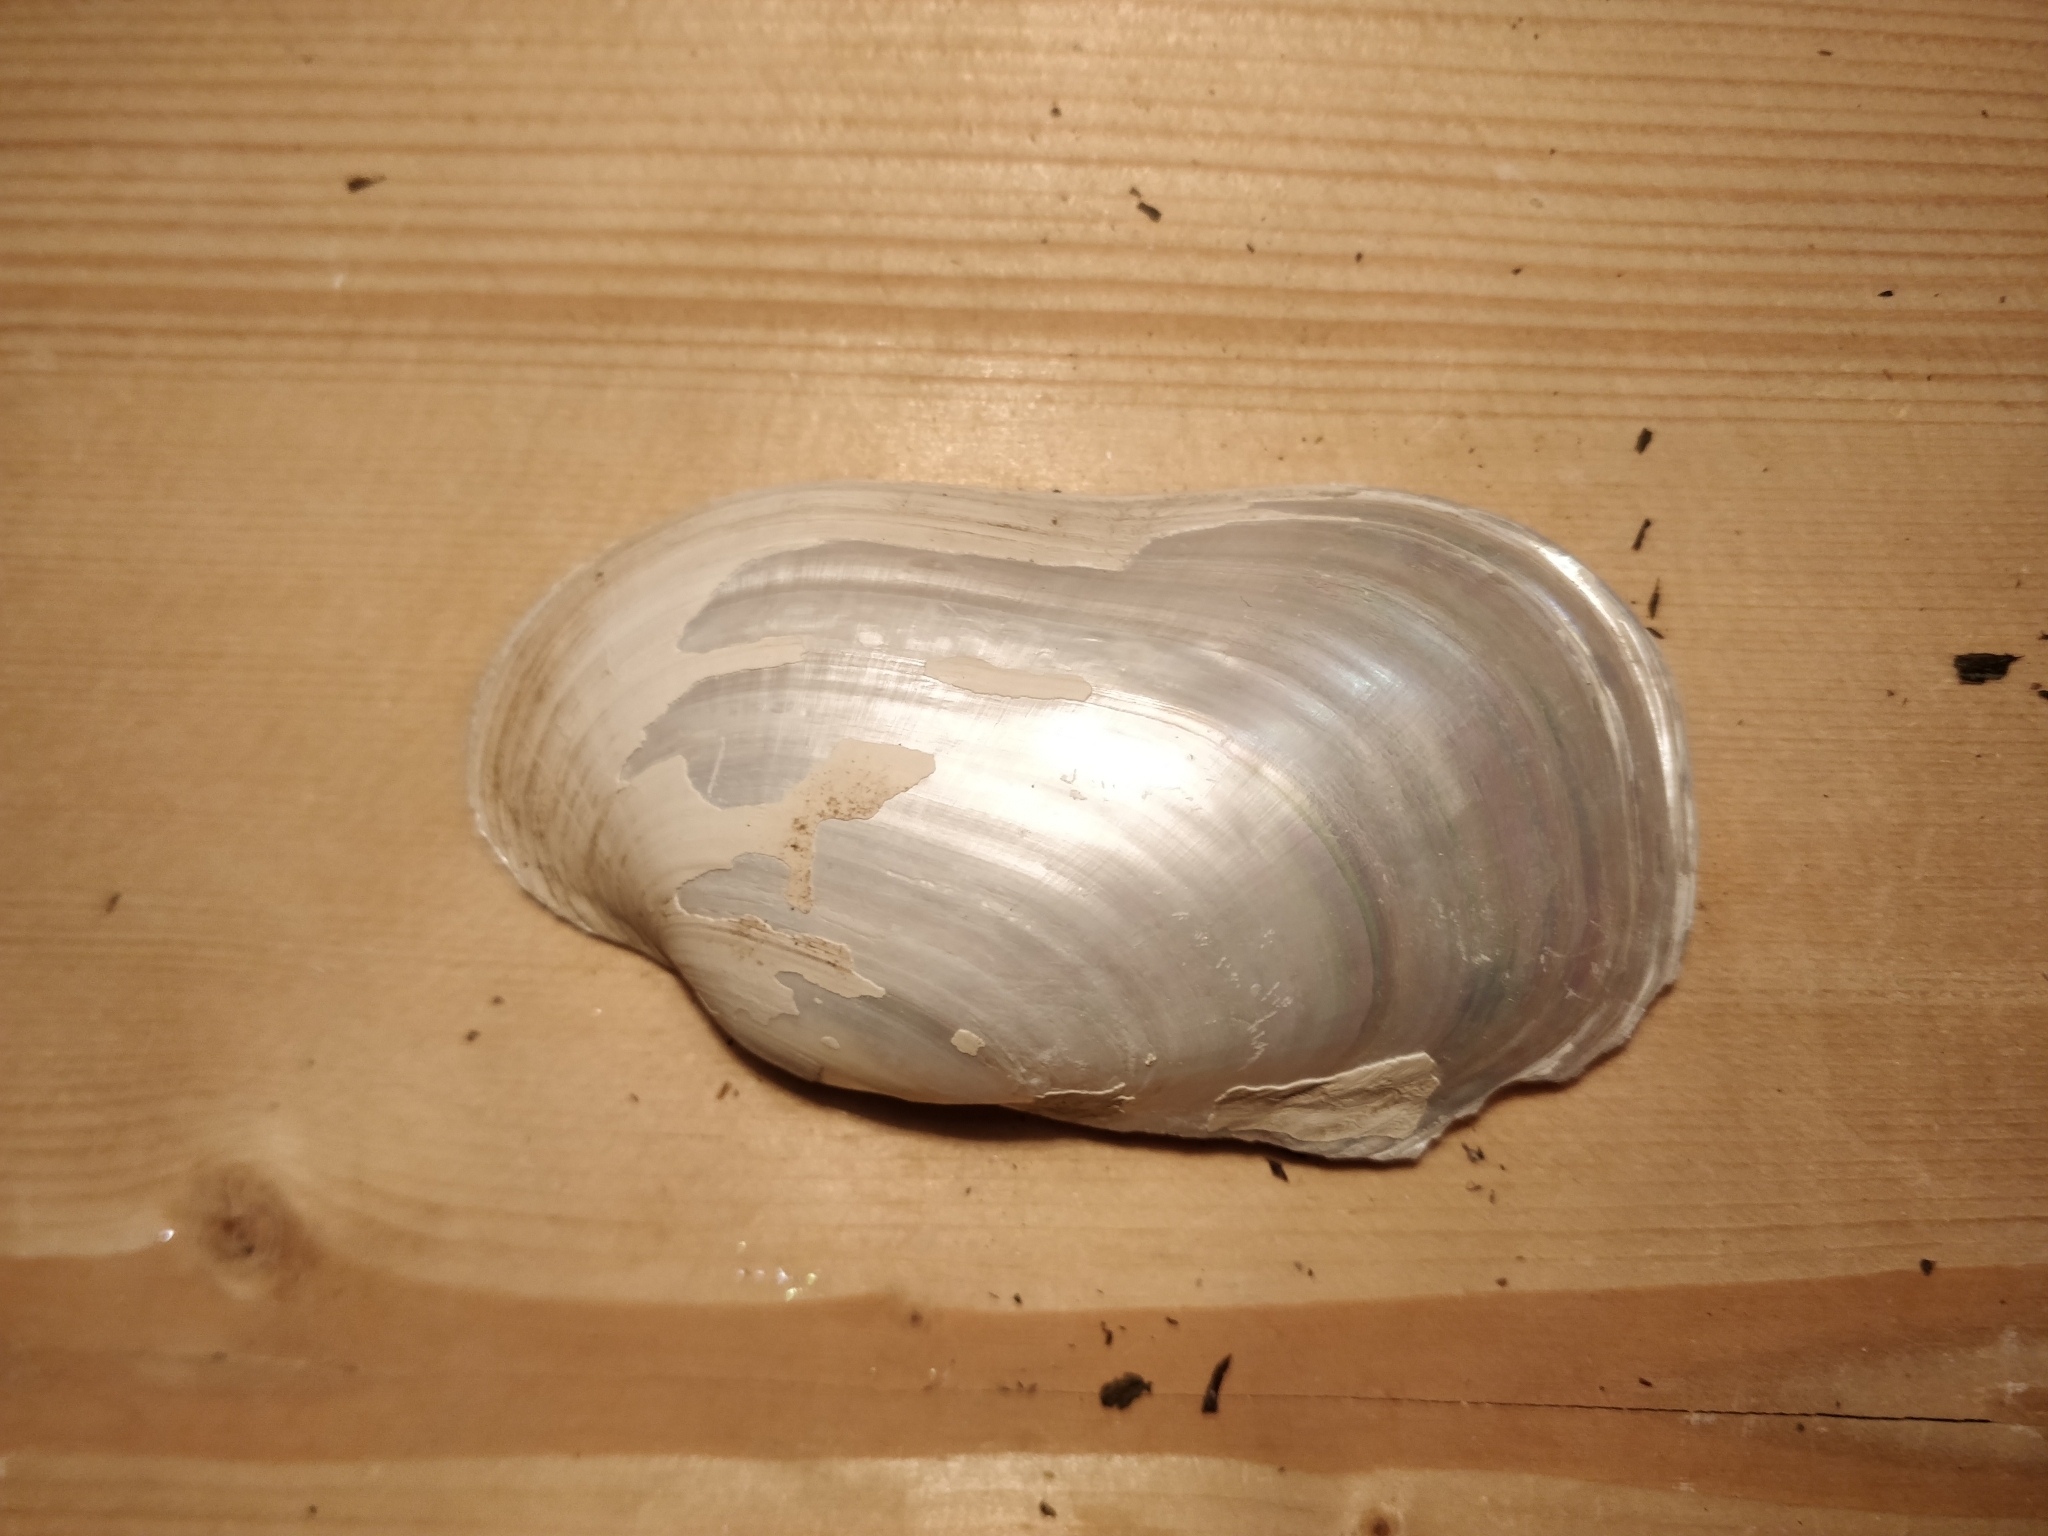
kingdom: Animalia
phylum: Mollusca
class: Bivalvia
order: Unionida
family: Unionidae
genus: Lampsilis
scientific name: Lampsilis siliquoidea
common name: Fatmucket
